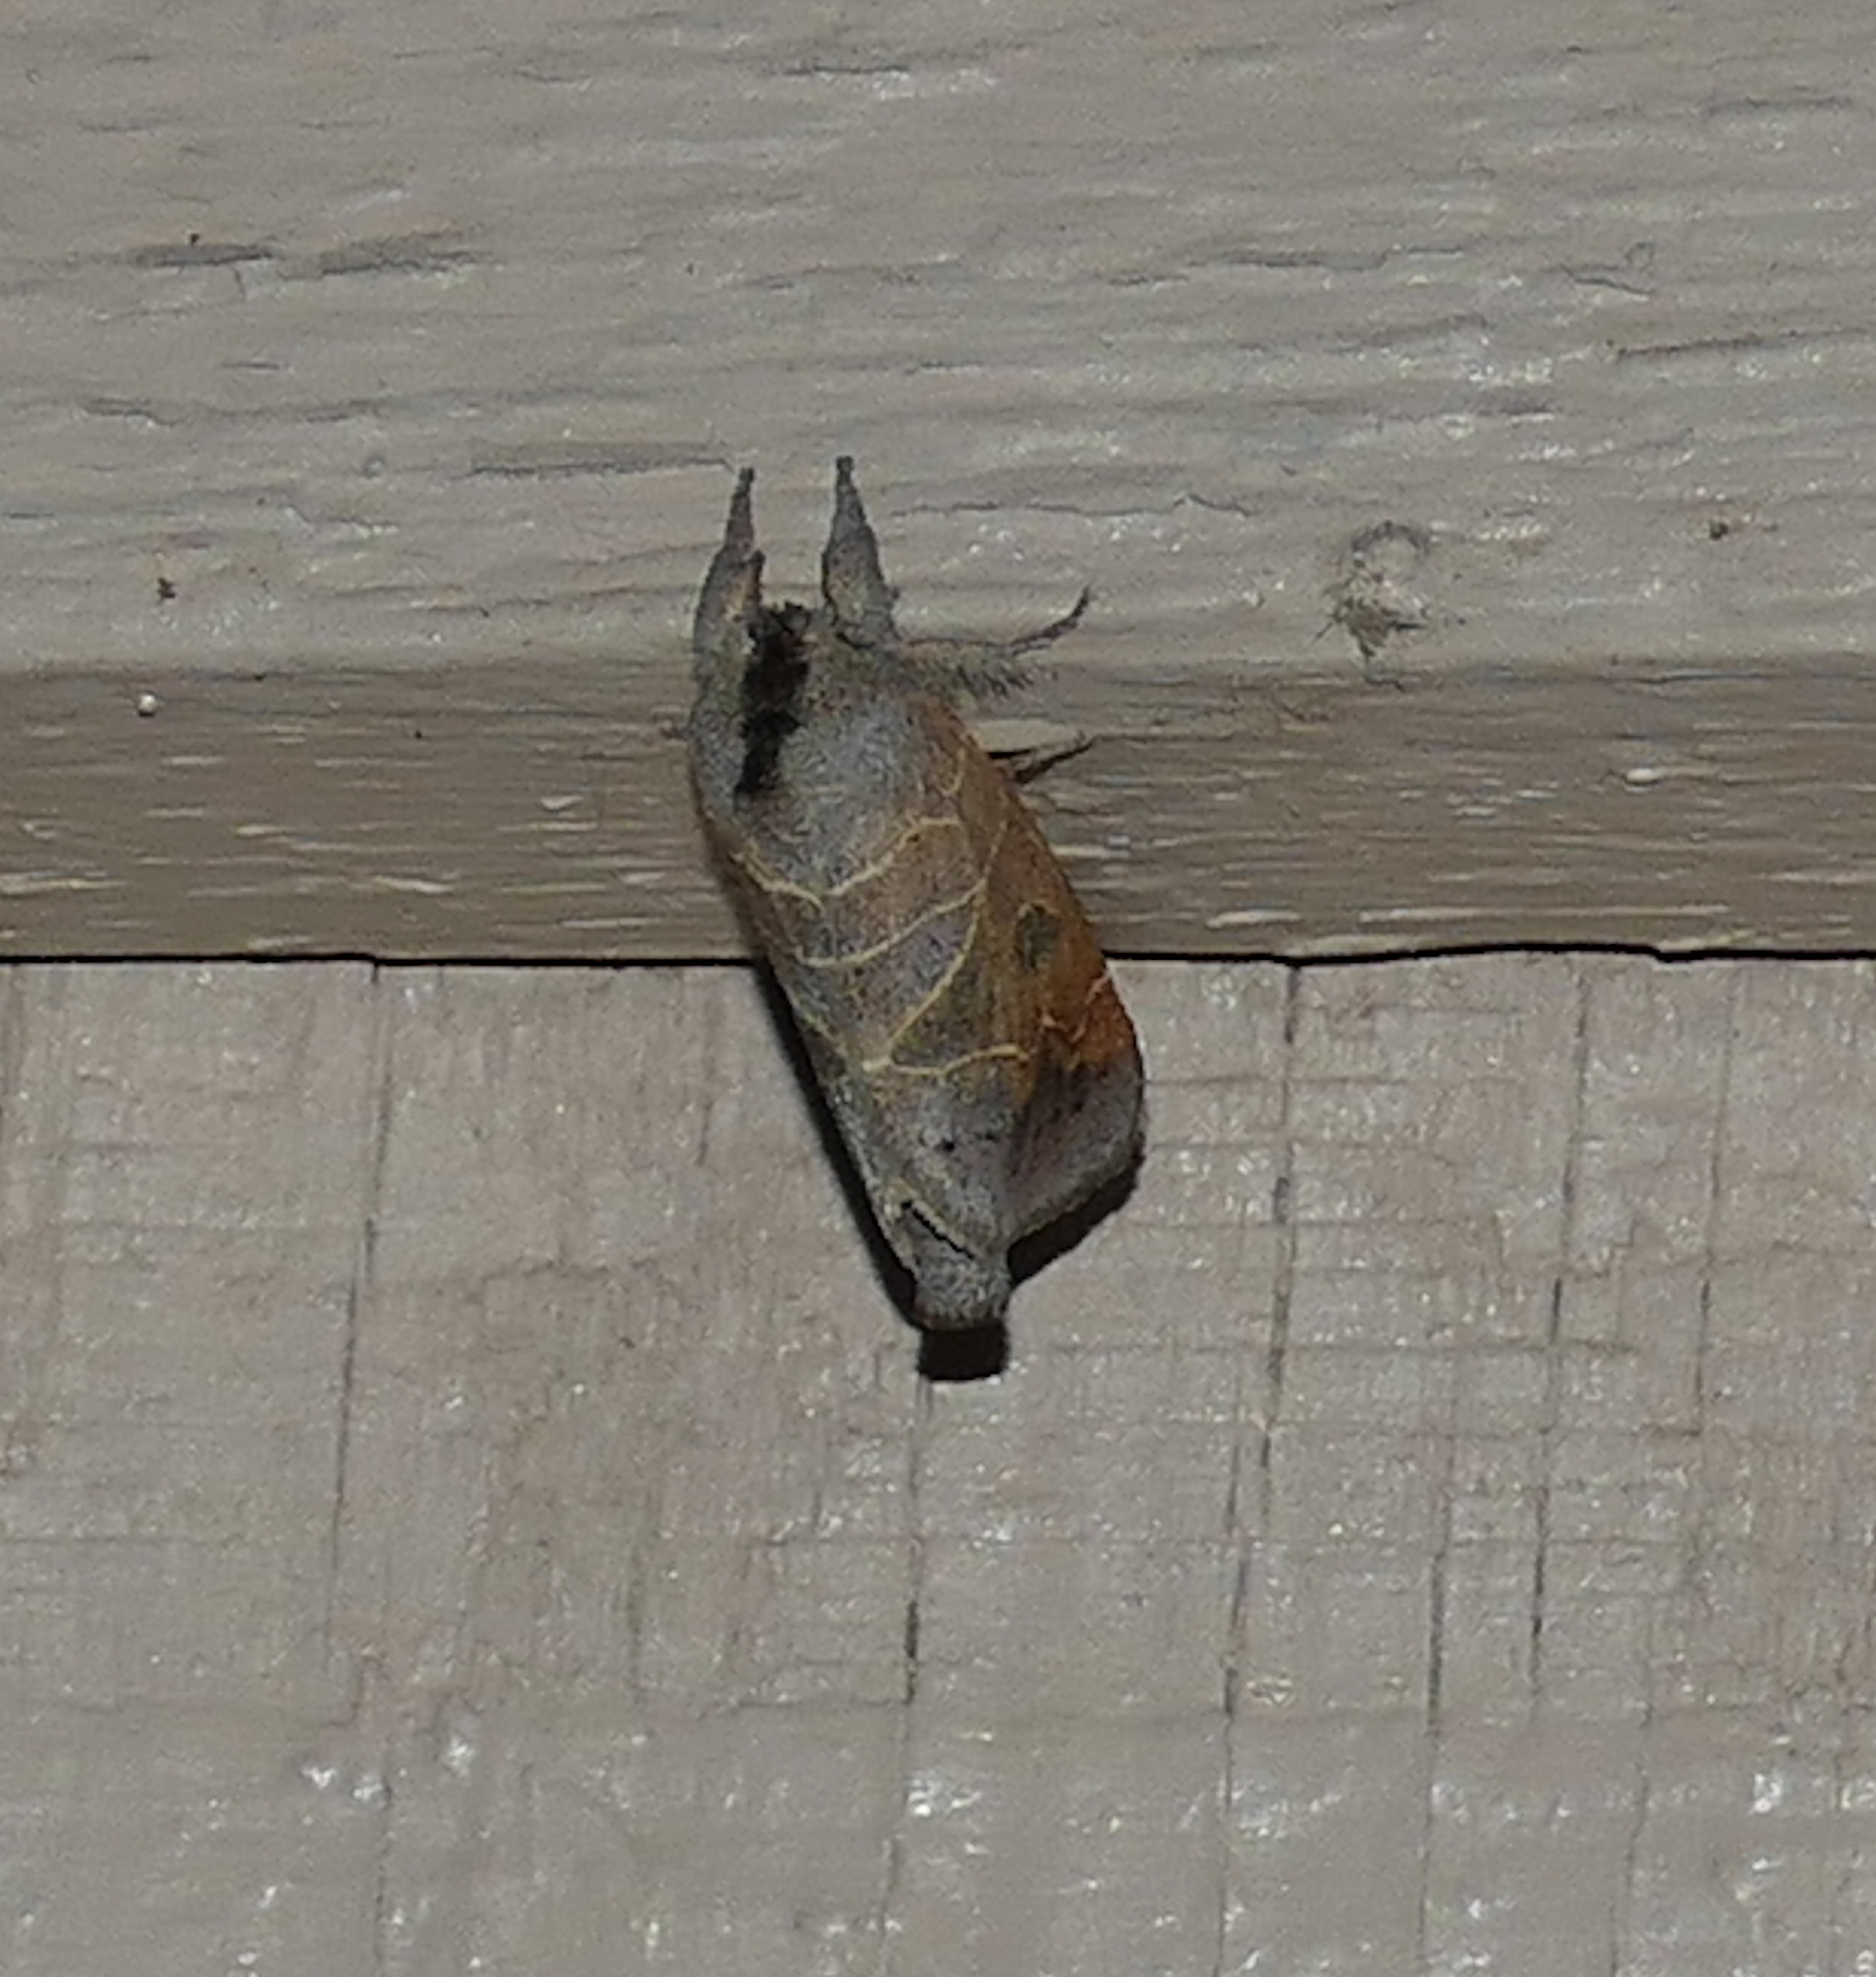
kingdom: Animalia
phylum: Arthropoda
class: Insecta
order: Lepidoptera
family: Notodontidae
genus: Clostera
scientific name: Clostera inornata
